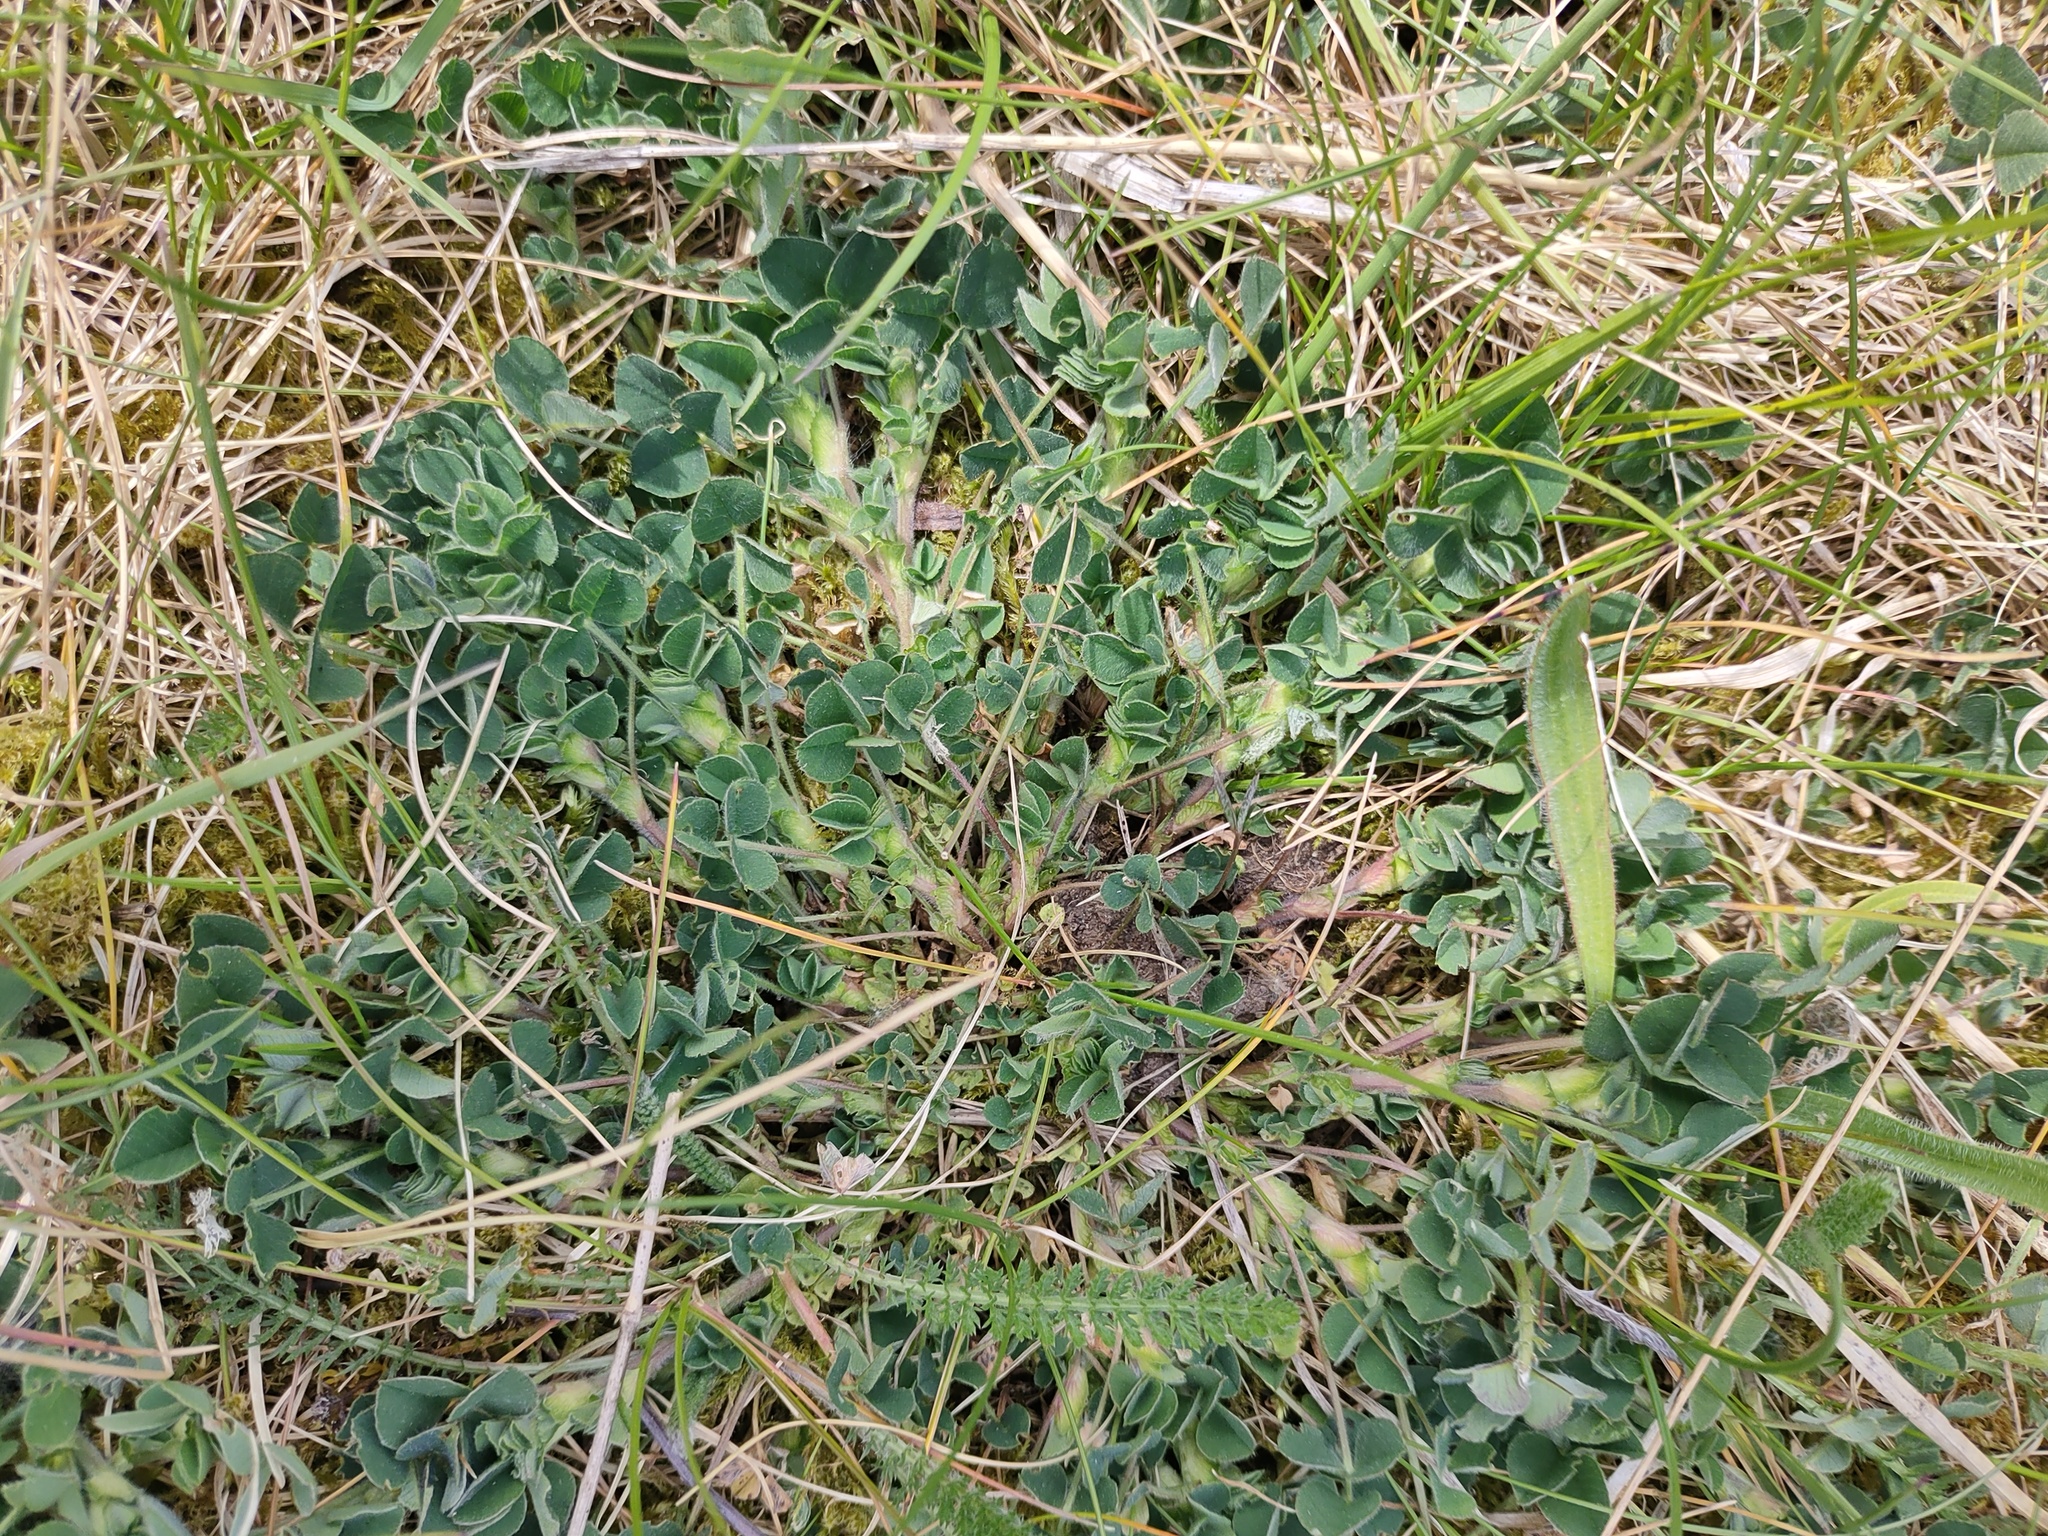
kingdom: Plantae
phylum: Tracheophyta
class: Magnoliopsida
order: Fabales
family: Fabaceae
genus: Lotus
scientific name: Lotus corniculatus
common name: Common bird's-foot-trefoil
